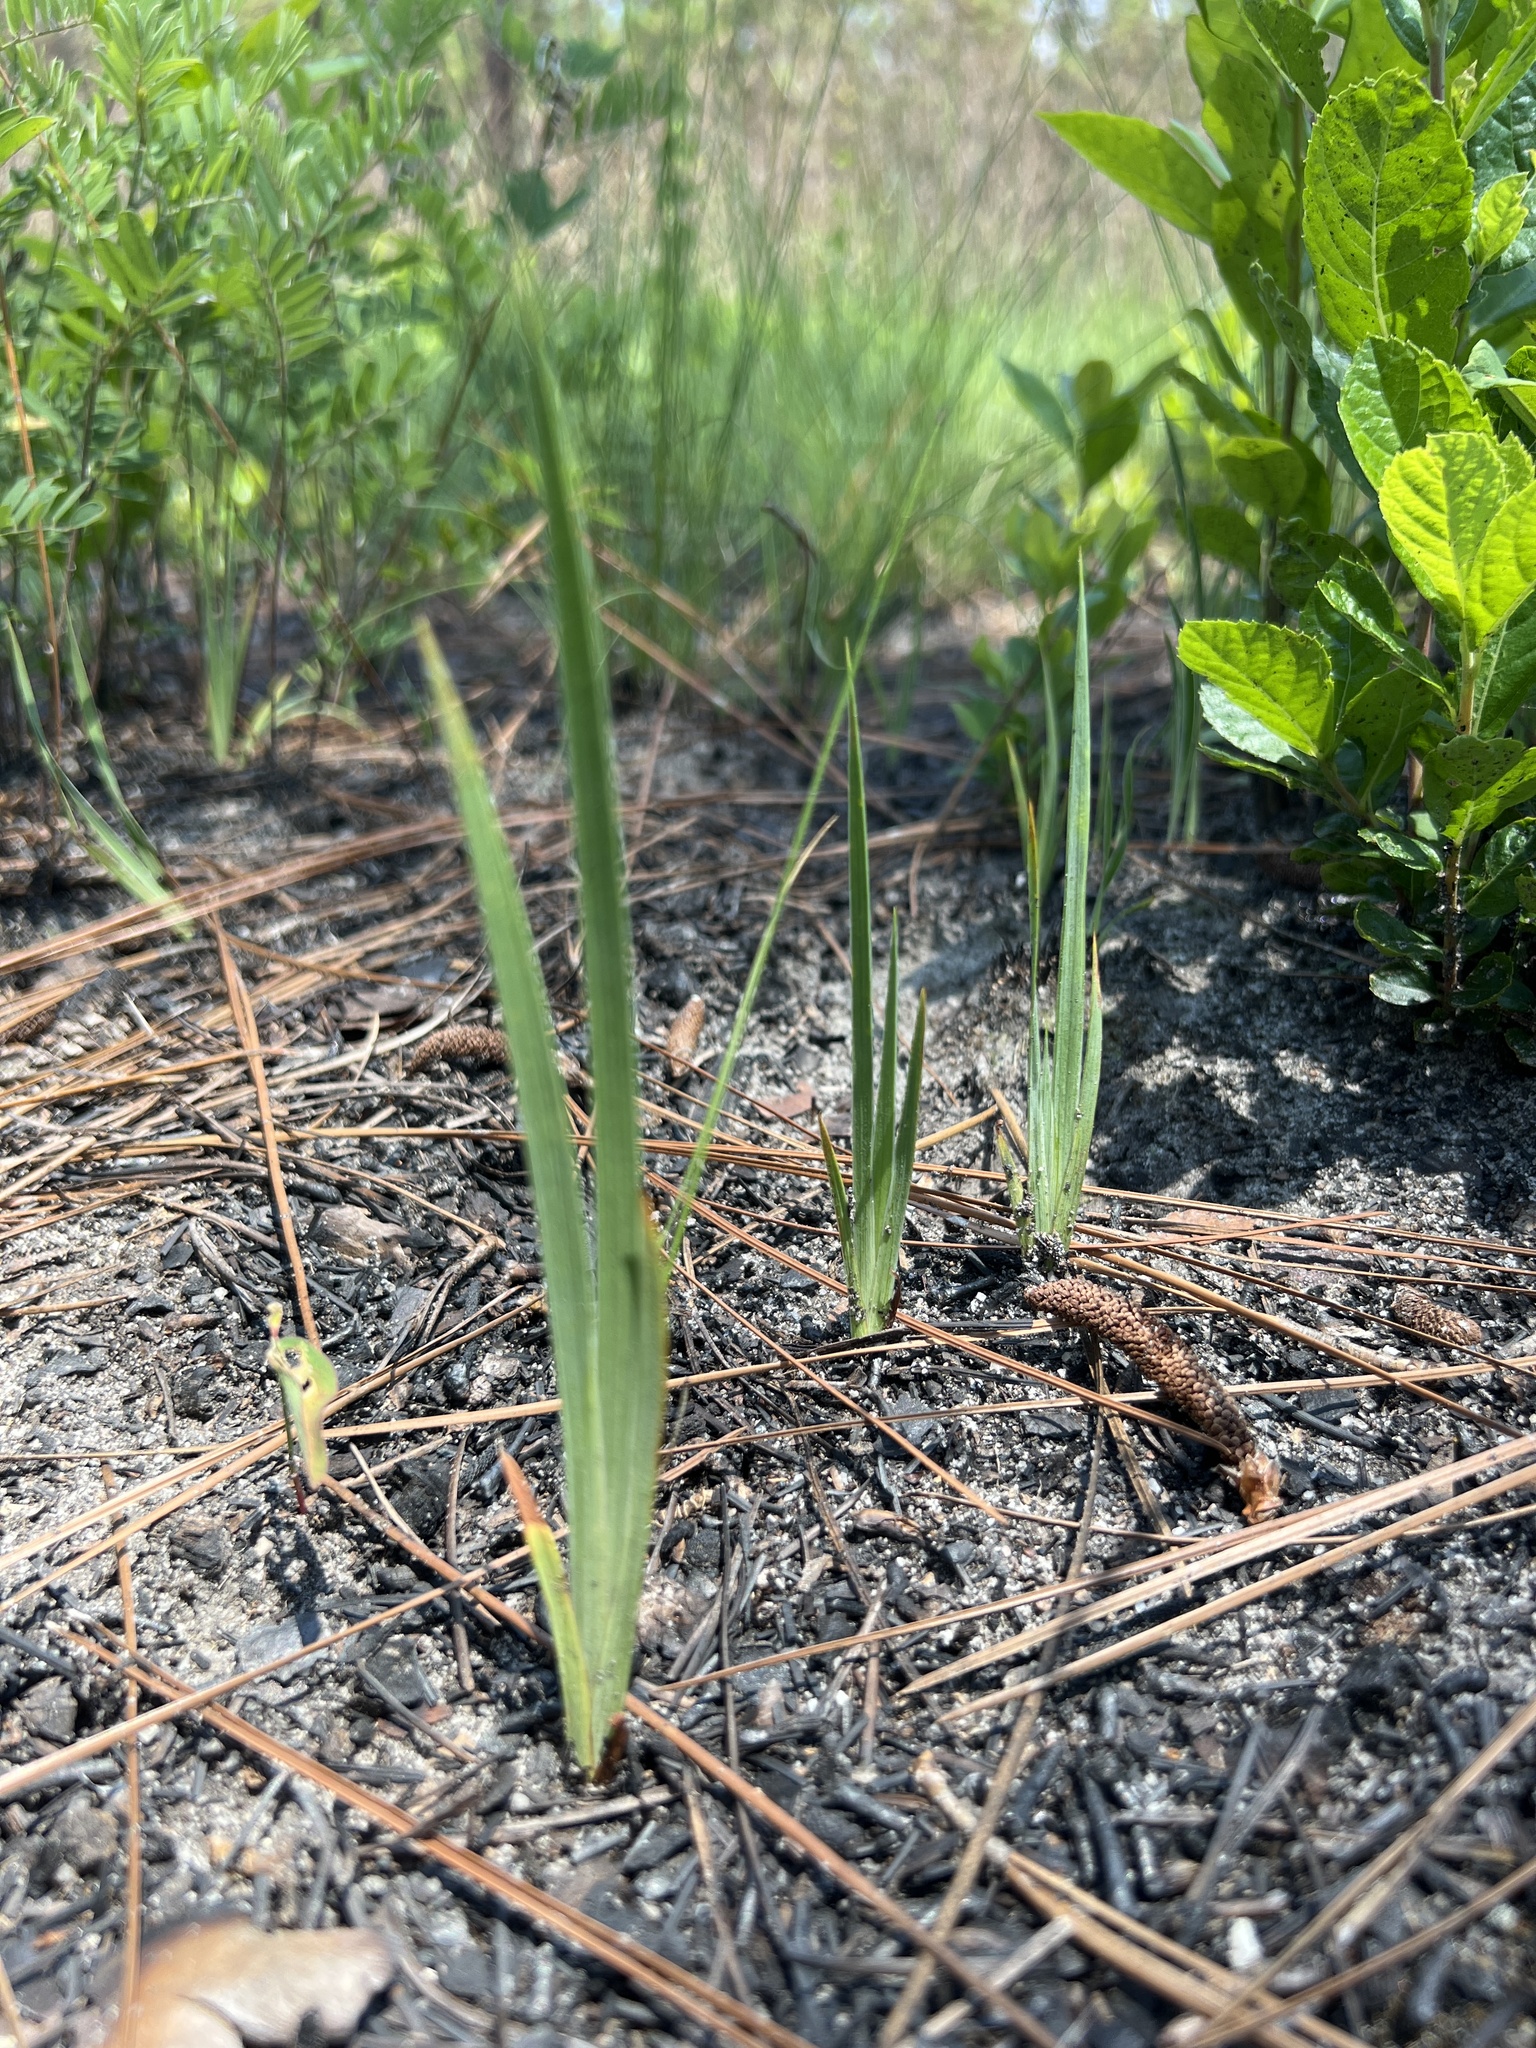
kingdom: Plantae
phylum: Tracheophyta
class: Liliopsida
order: Asparagales
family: Iridaceae
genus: Iris
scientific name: Iris verna
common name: Dwarf iris
